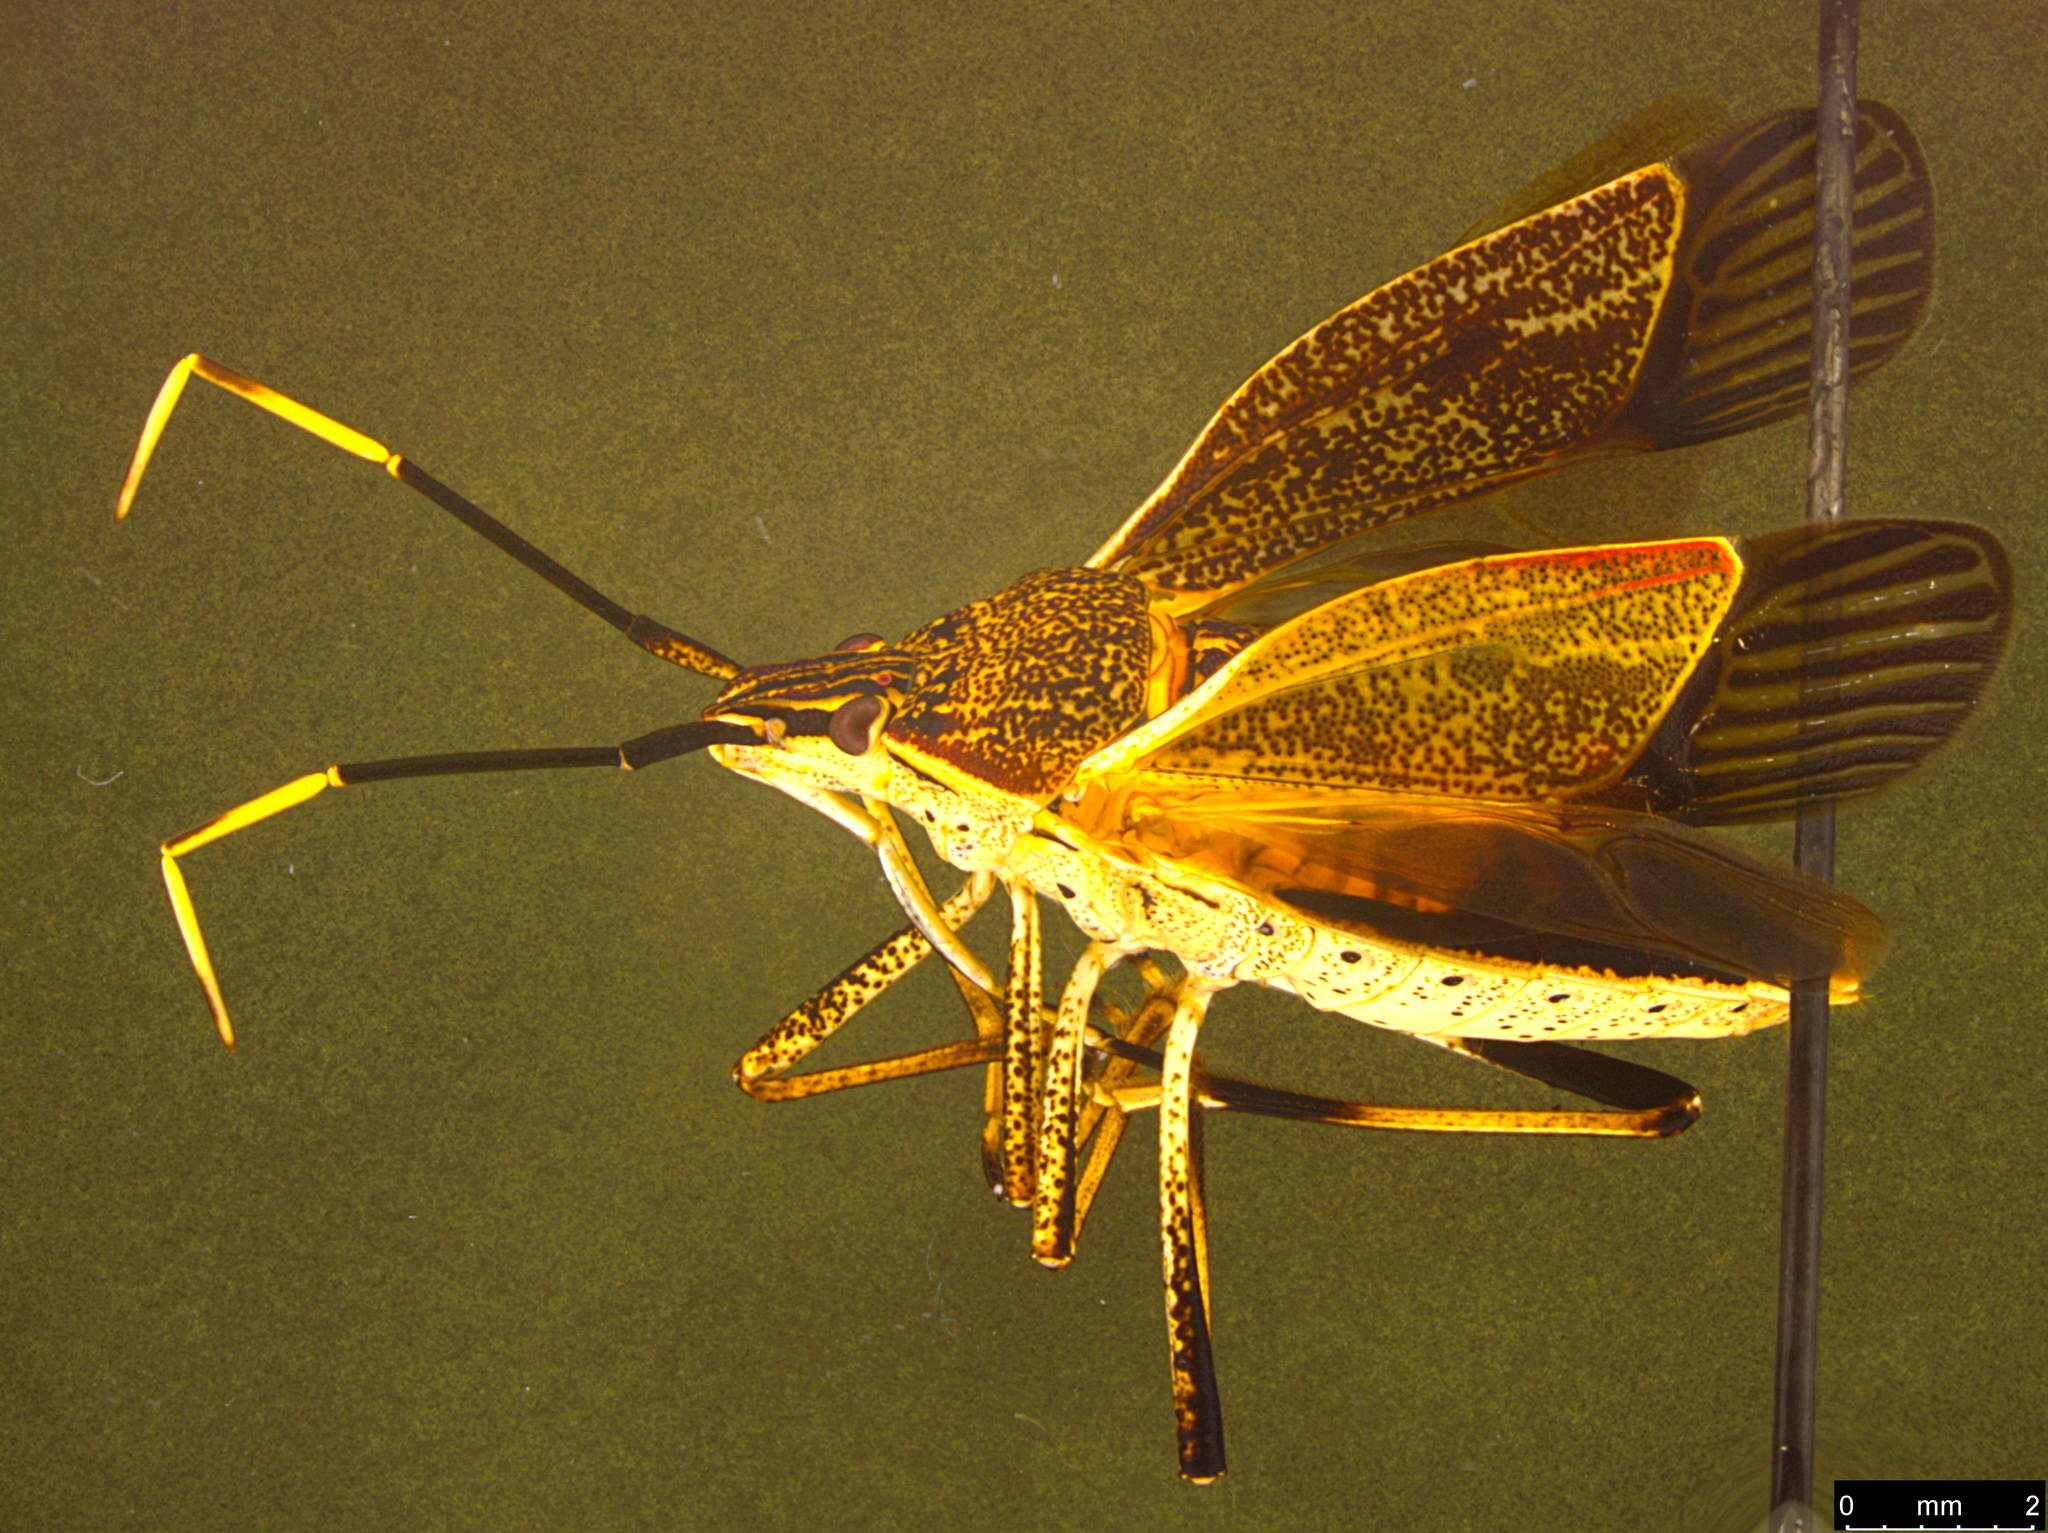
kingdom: Animalia
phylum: Arthropoda
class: Insecta
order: Hemiptera
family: Pentatomidae
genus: Poecilometis
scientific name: Poecilometis
